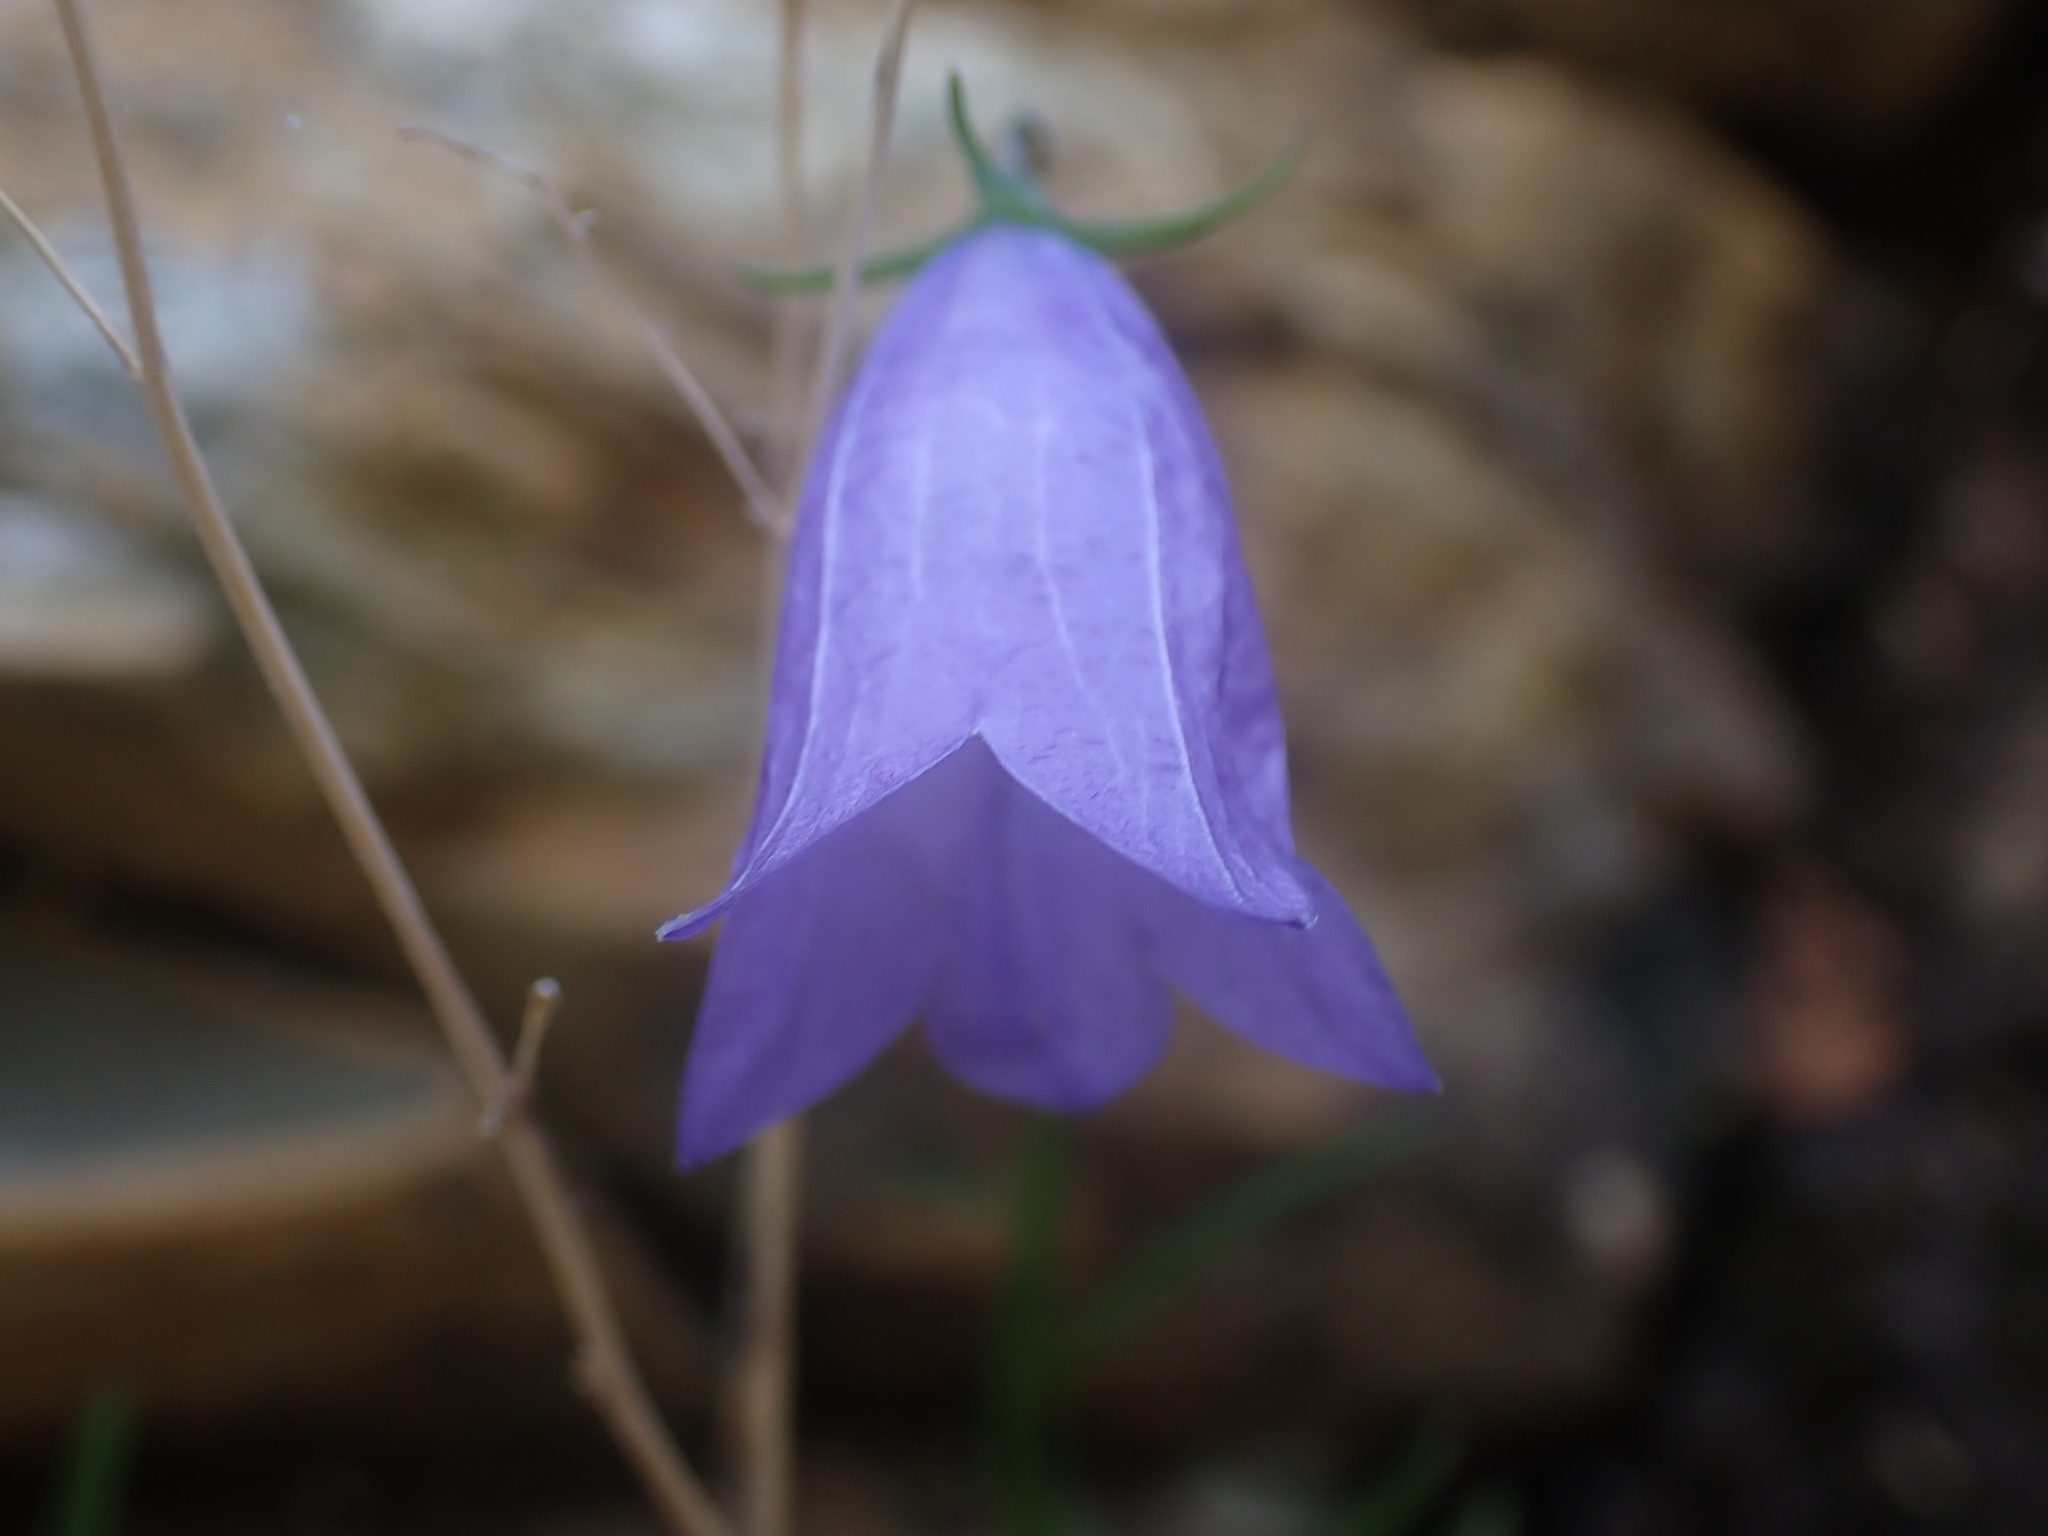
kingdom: Plantae
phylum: Tracheophyta
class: Magnoliopsida
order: Asterales
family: Campanulaceae
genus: Campanula
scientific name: Campanula alaskana
